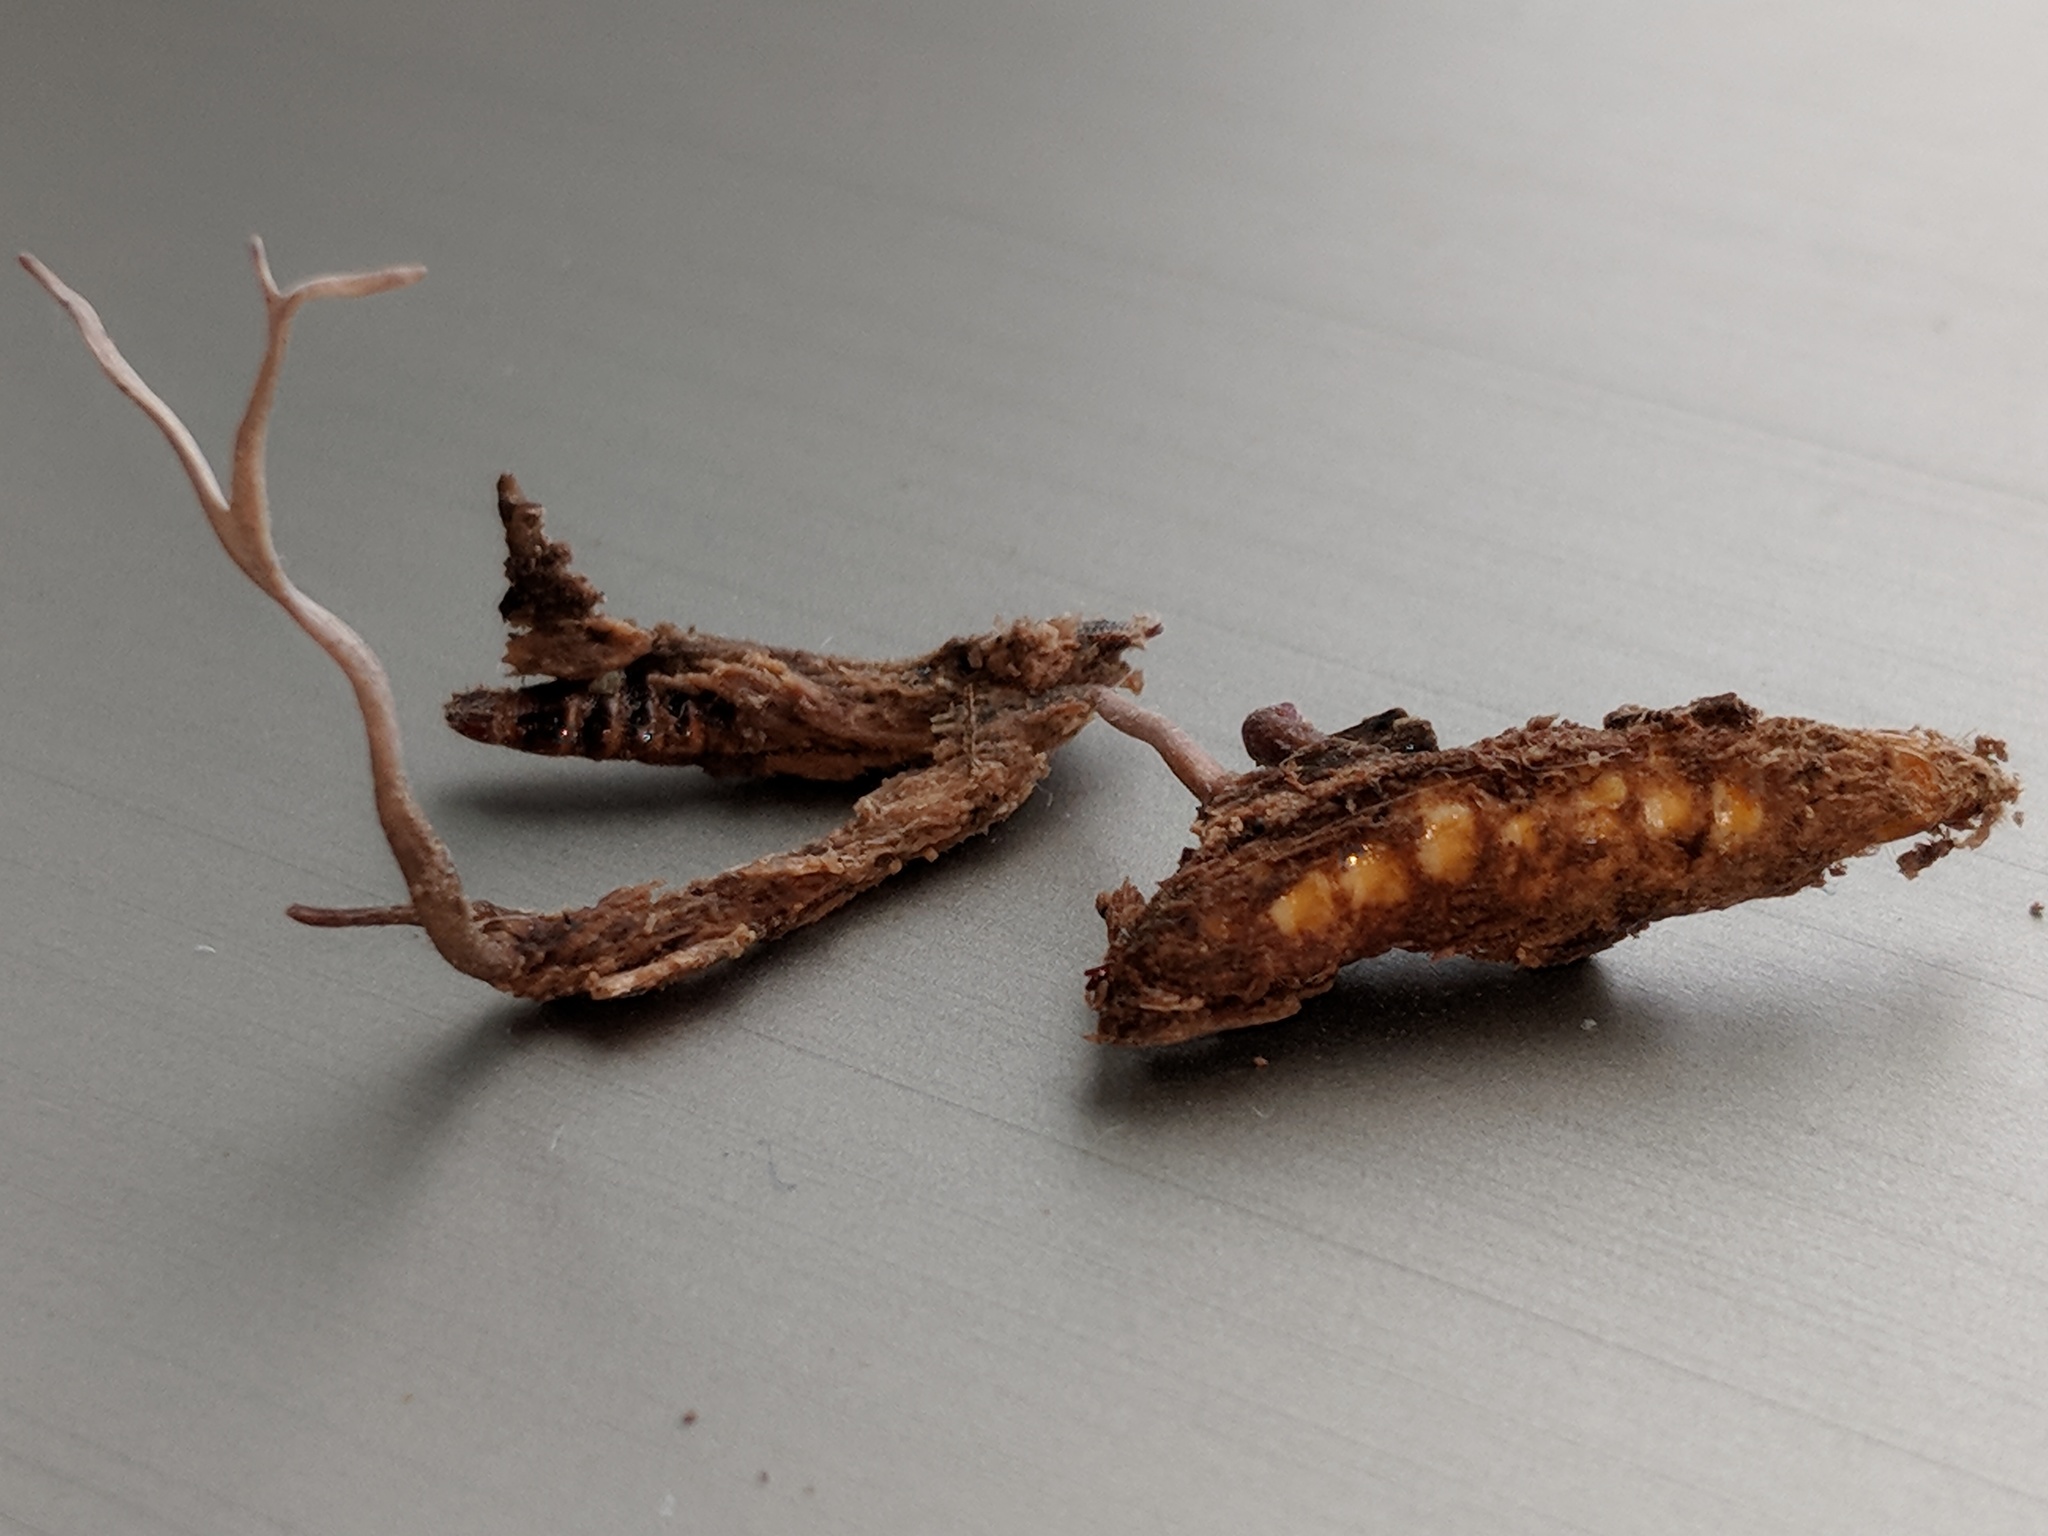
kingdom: Fungi
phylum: Ascomycota
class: Sordariomycetes
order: Hypocreales
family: Ophiocordycipitaceae
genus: Ophiocordyceps
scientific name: Ophiocordyceps stylophora
